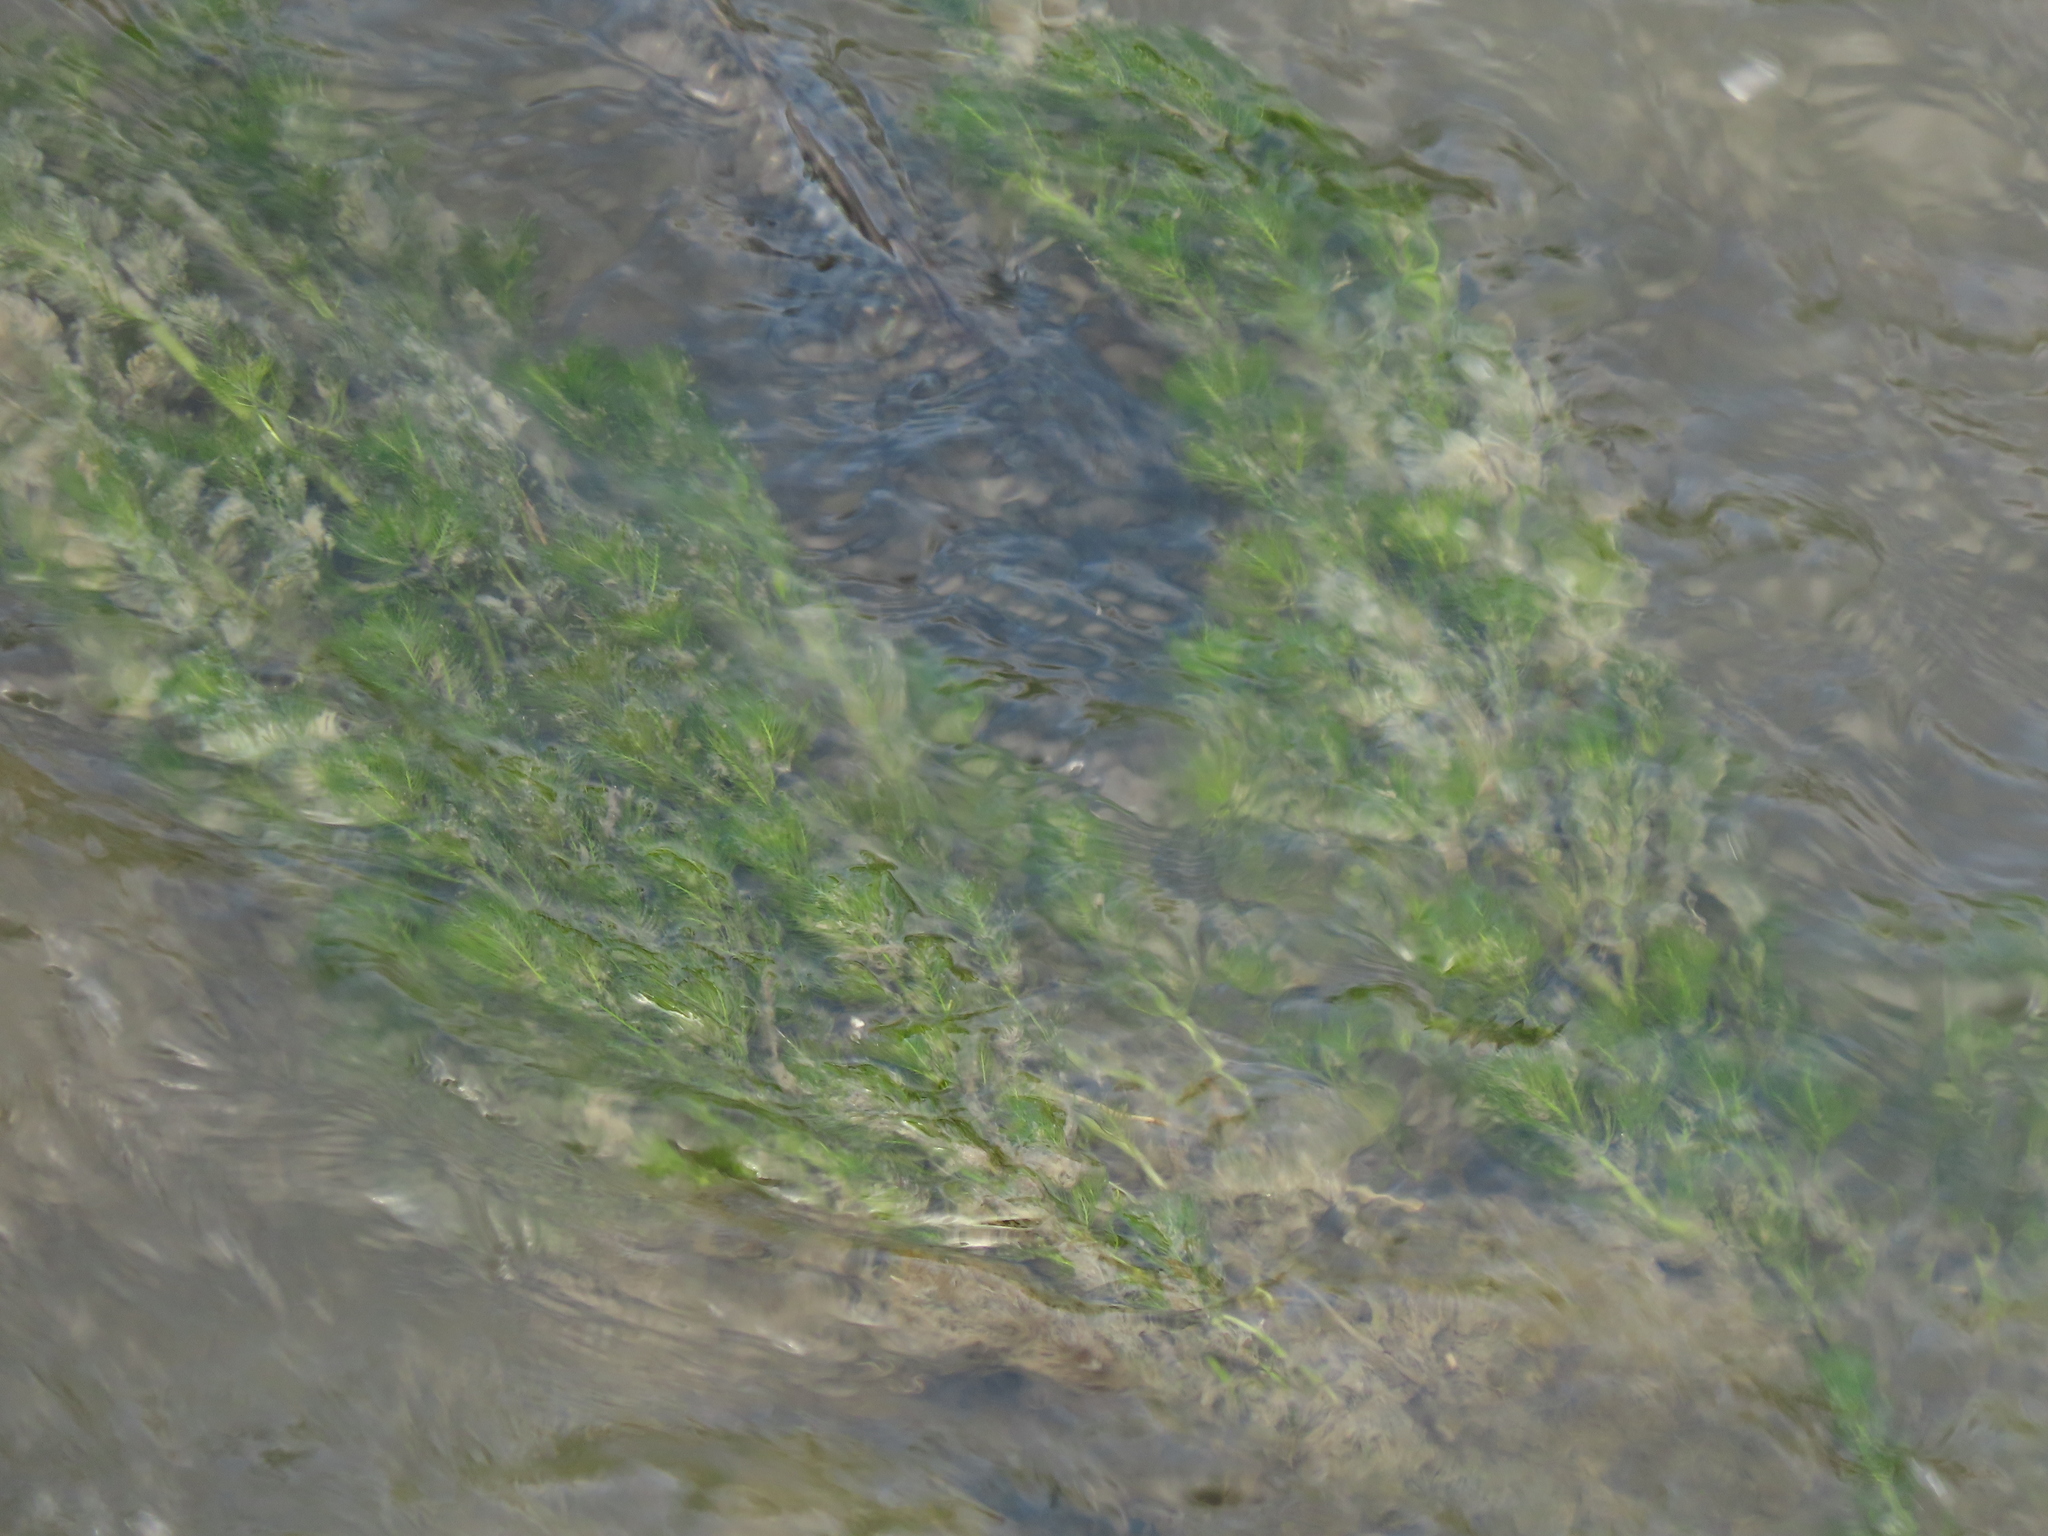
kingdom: Plantae
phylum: Tracheophyta
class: Magnoliopsida
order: Saxifragales
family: Haloragaceae
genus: Myriophyllum
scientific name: Myriophyllum spicatum
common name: Spiked water-milfoil
